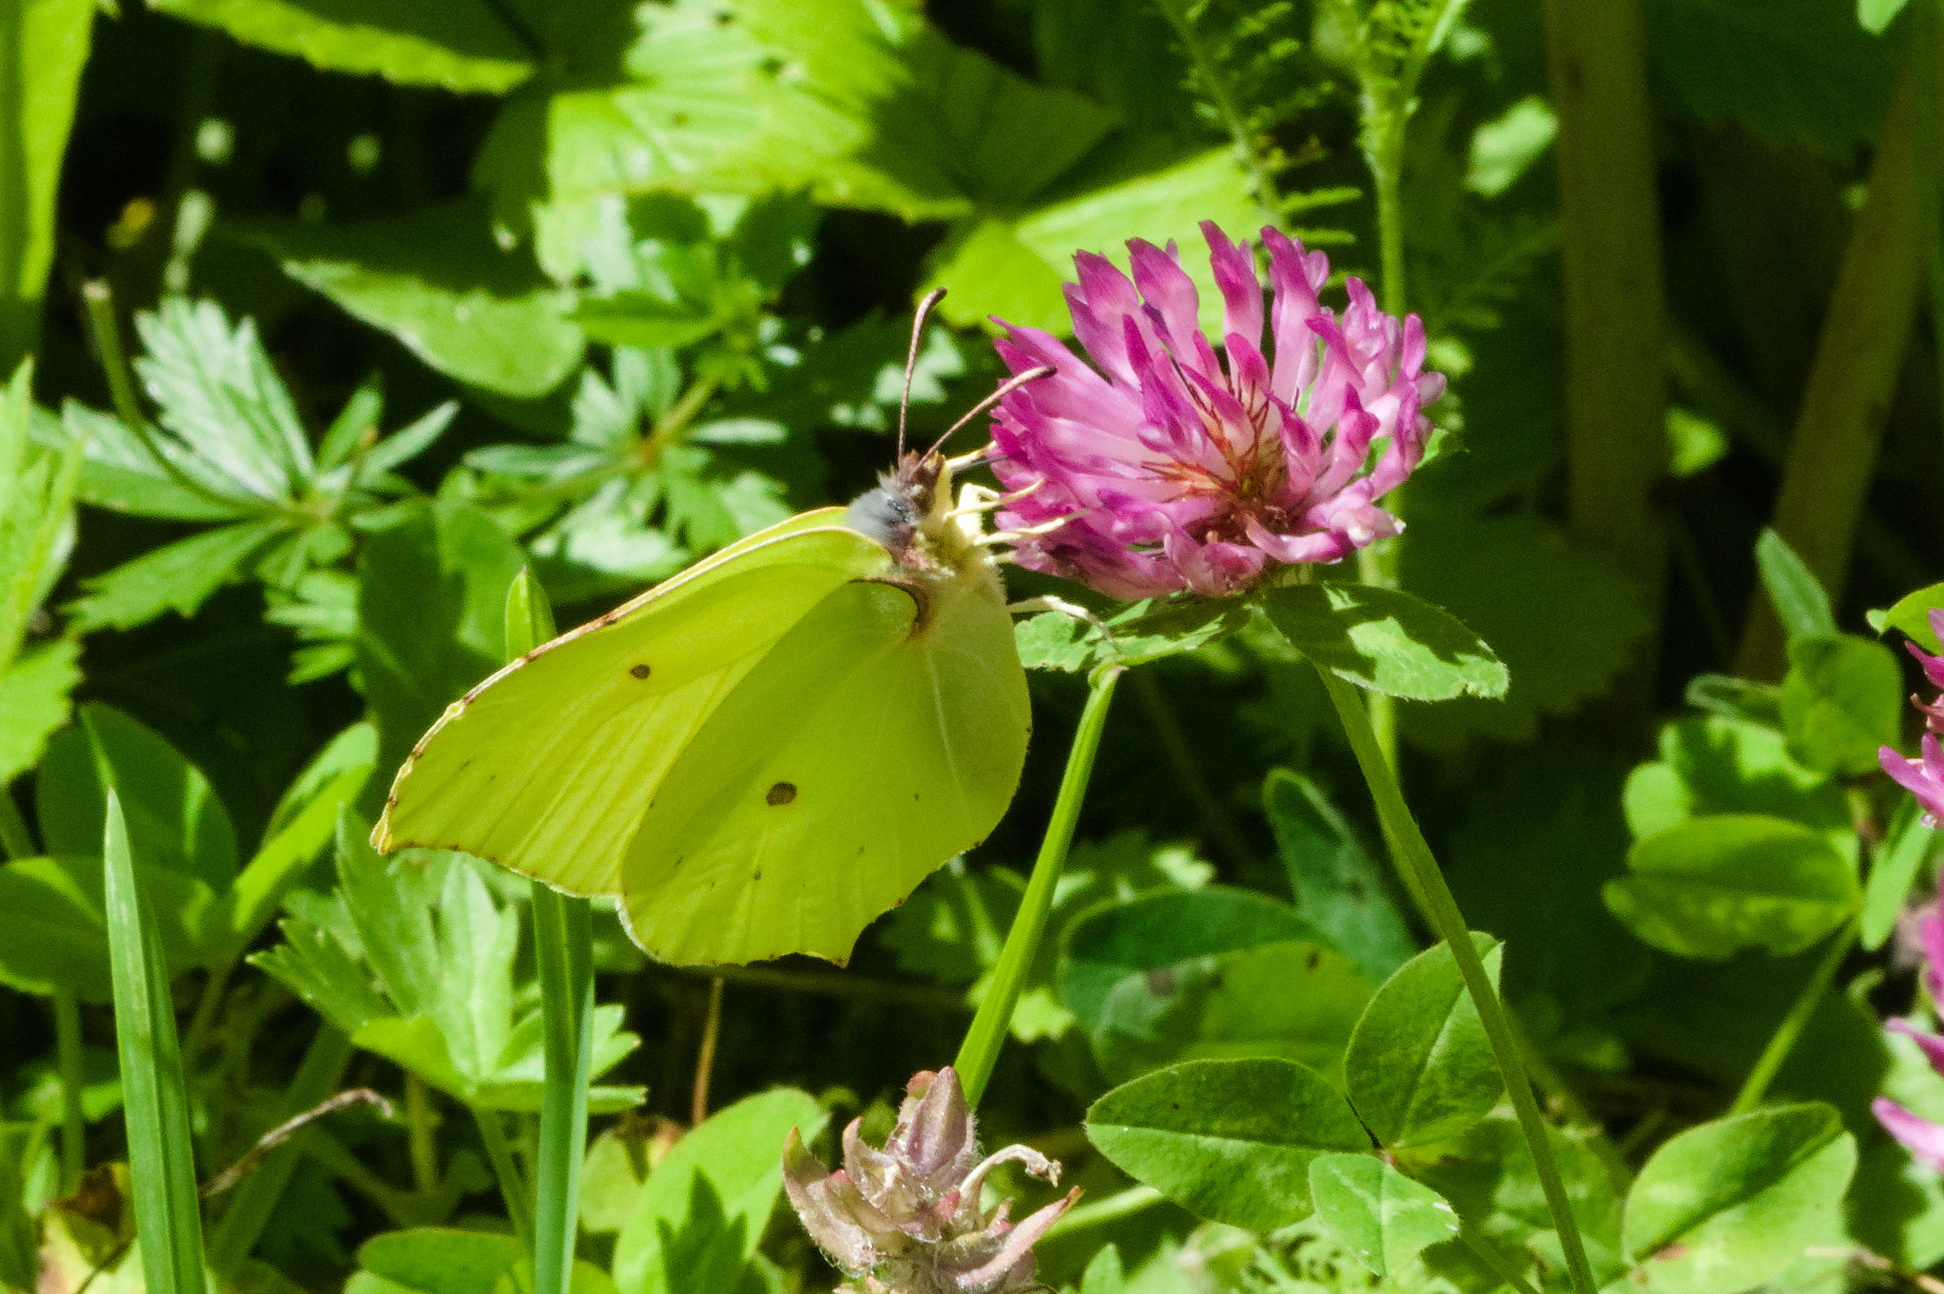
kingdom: Animalia
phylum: Arthropoda
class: Insecta
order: Lepidoptera
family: Pieridae
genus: Gonepteryx
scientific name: Gonepteryx rhamni
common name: Brimstone
